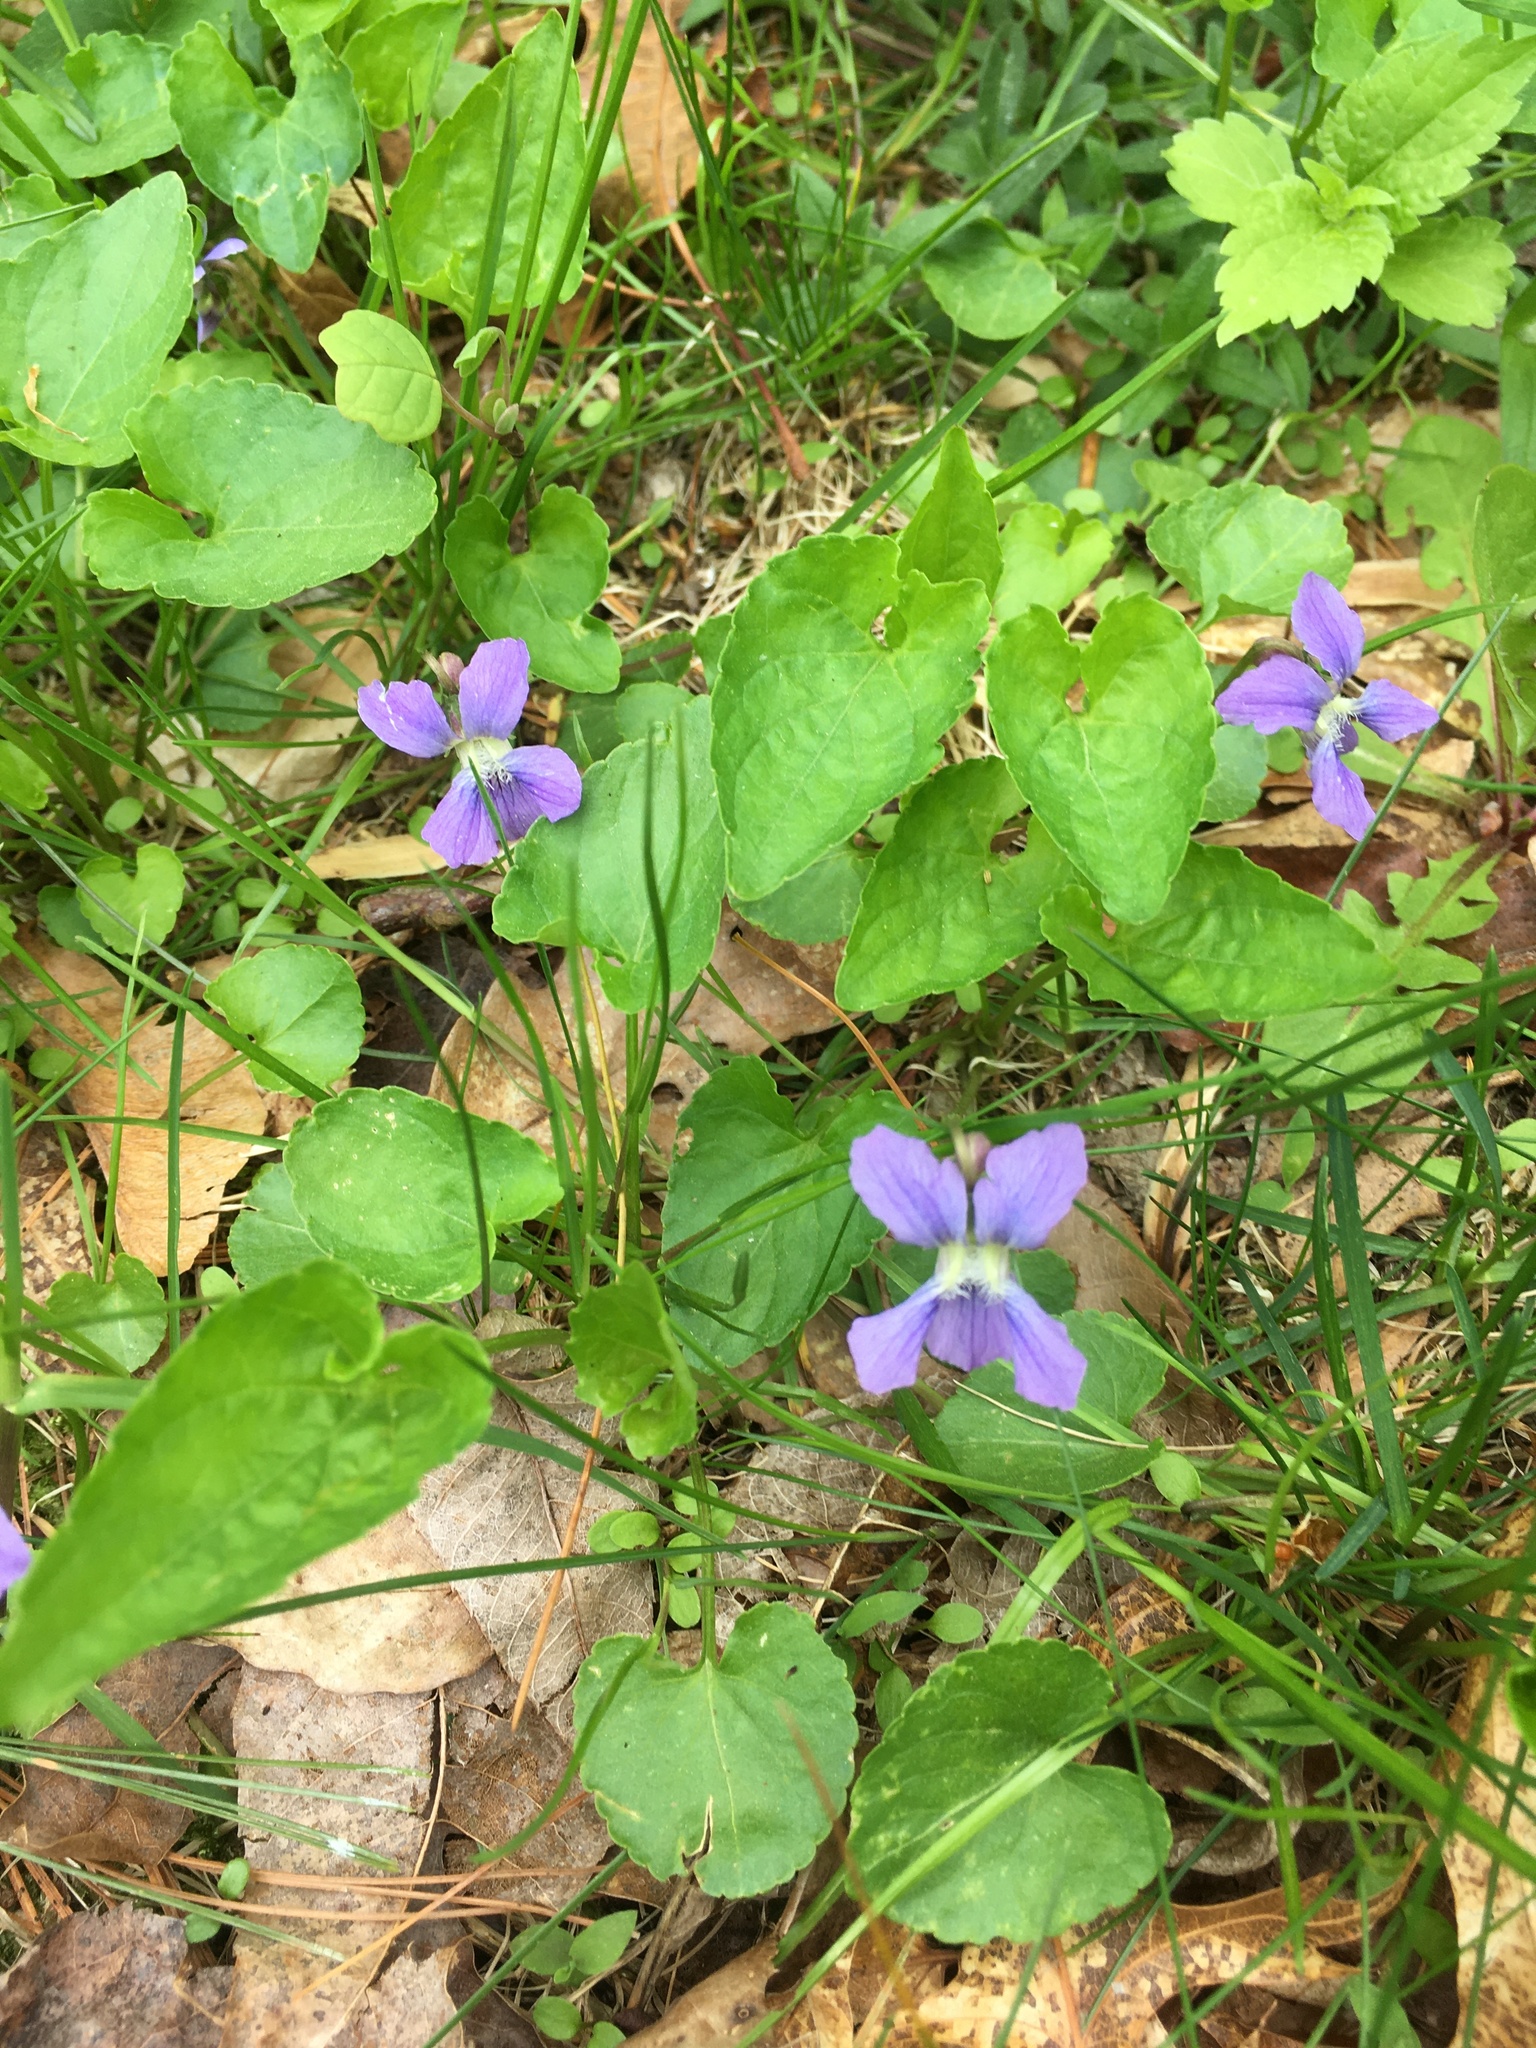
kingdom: Plantae
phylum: Tracheophyta
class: Magnoliopsida
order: Malpighiales
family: Violaceae
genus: Viola
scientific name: Viola sororia
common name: Dooryard violet
